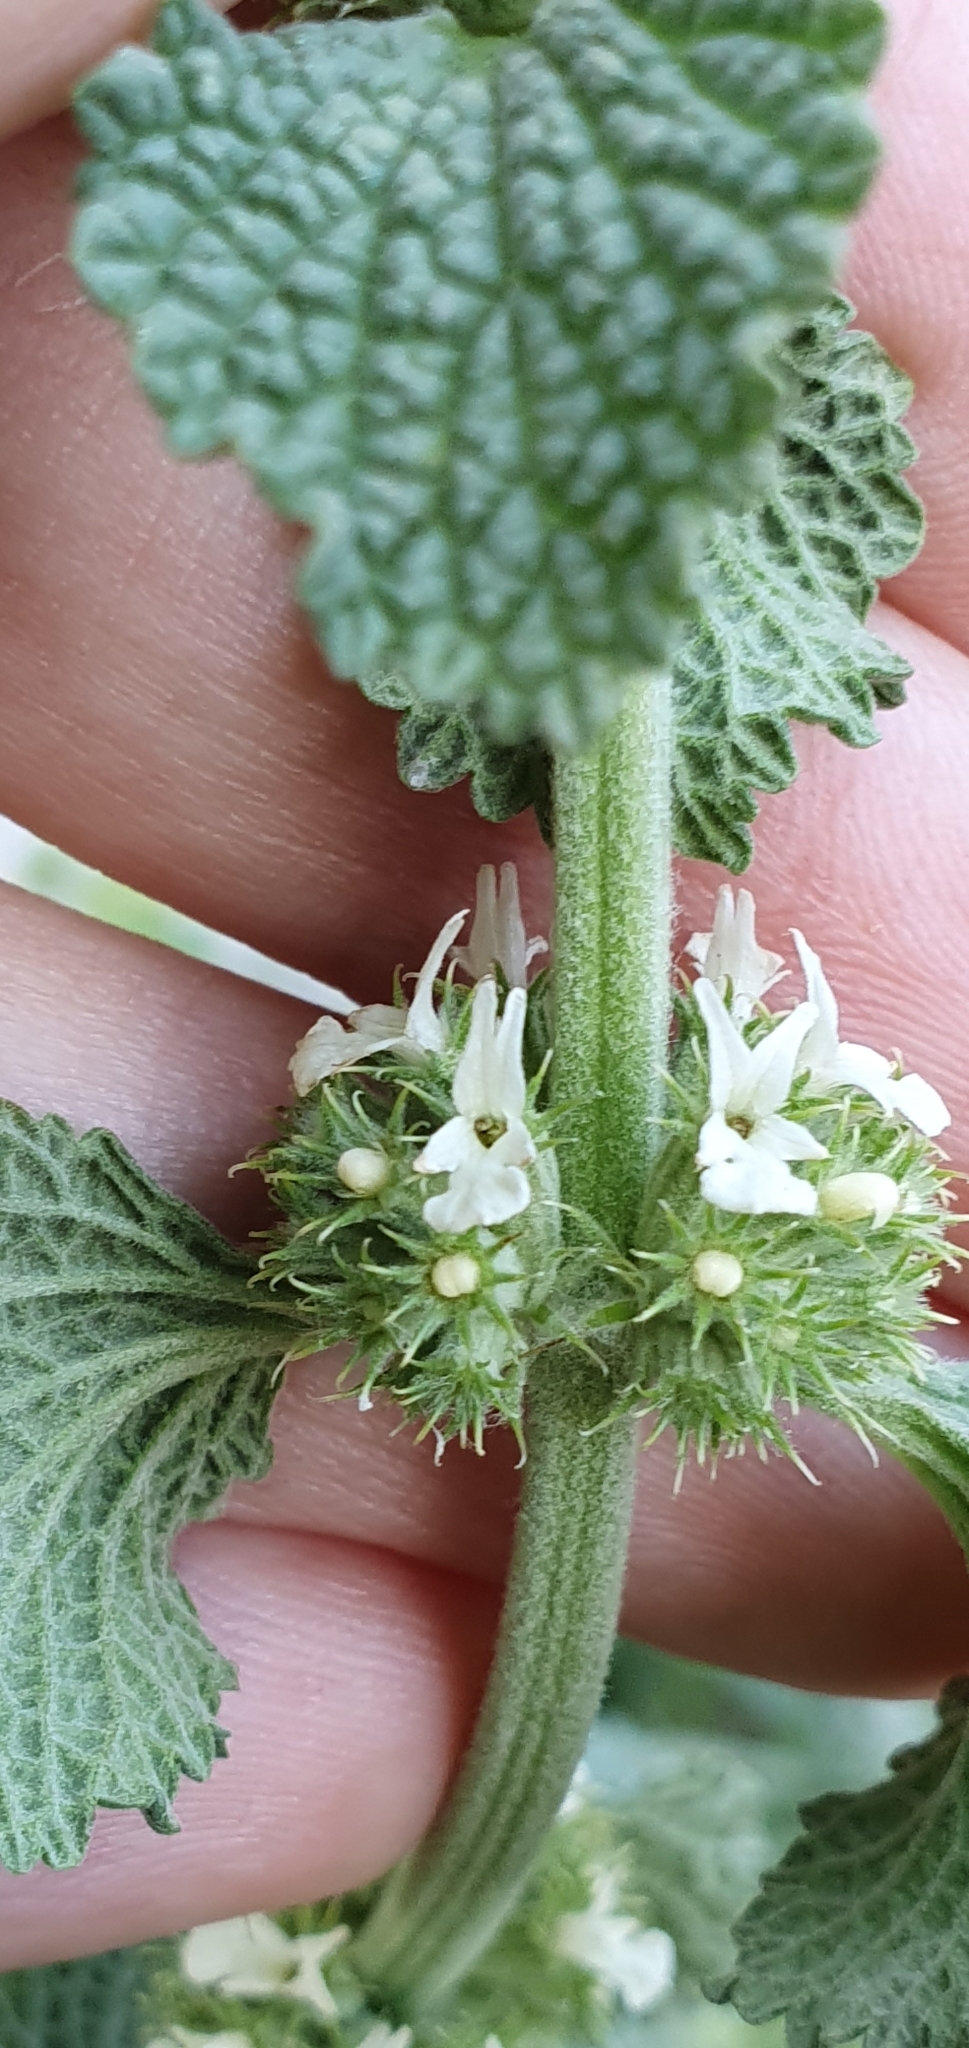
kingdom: Plantae
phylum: Tracheophyta
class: Magnoliopsida
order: Lamiales
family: Lamiaceae
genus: Marrubium
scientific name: Marrubium vulgare
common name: Horehound
